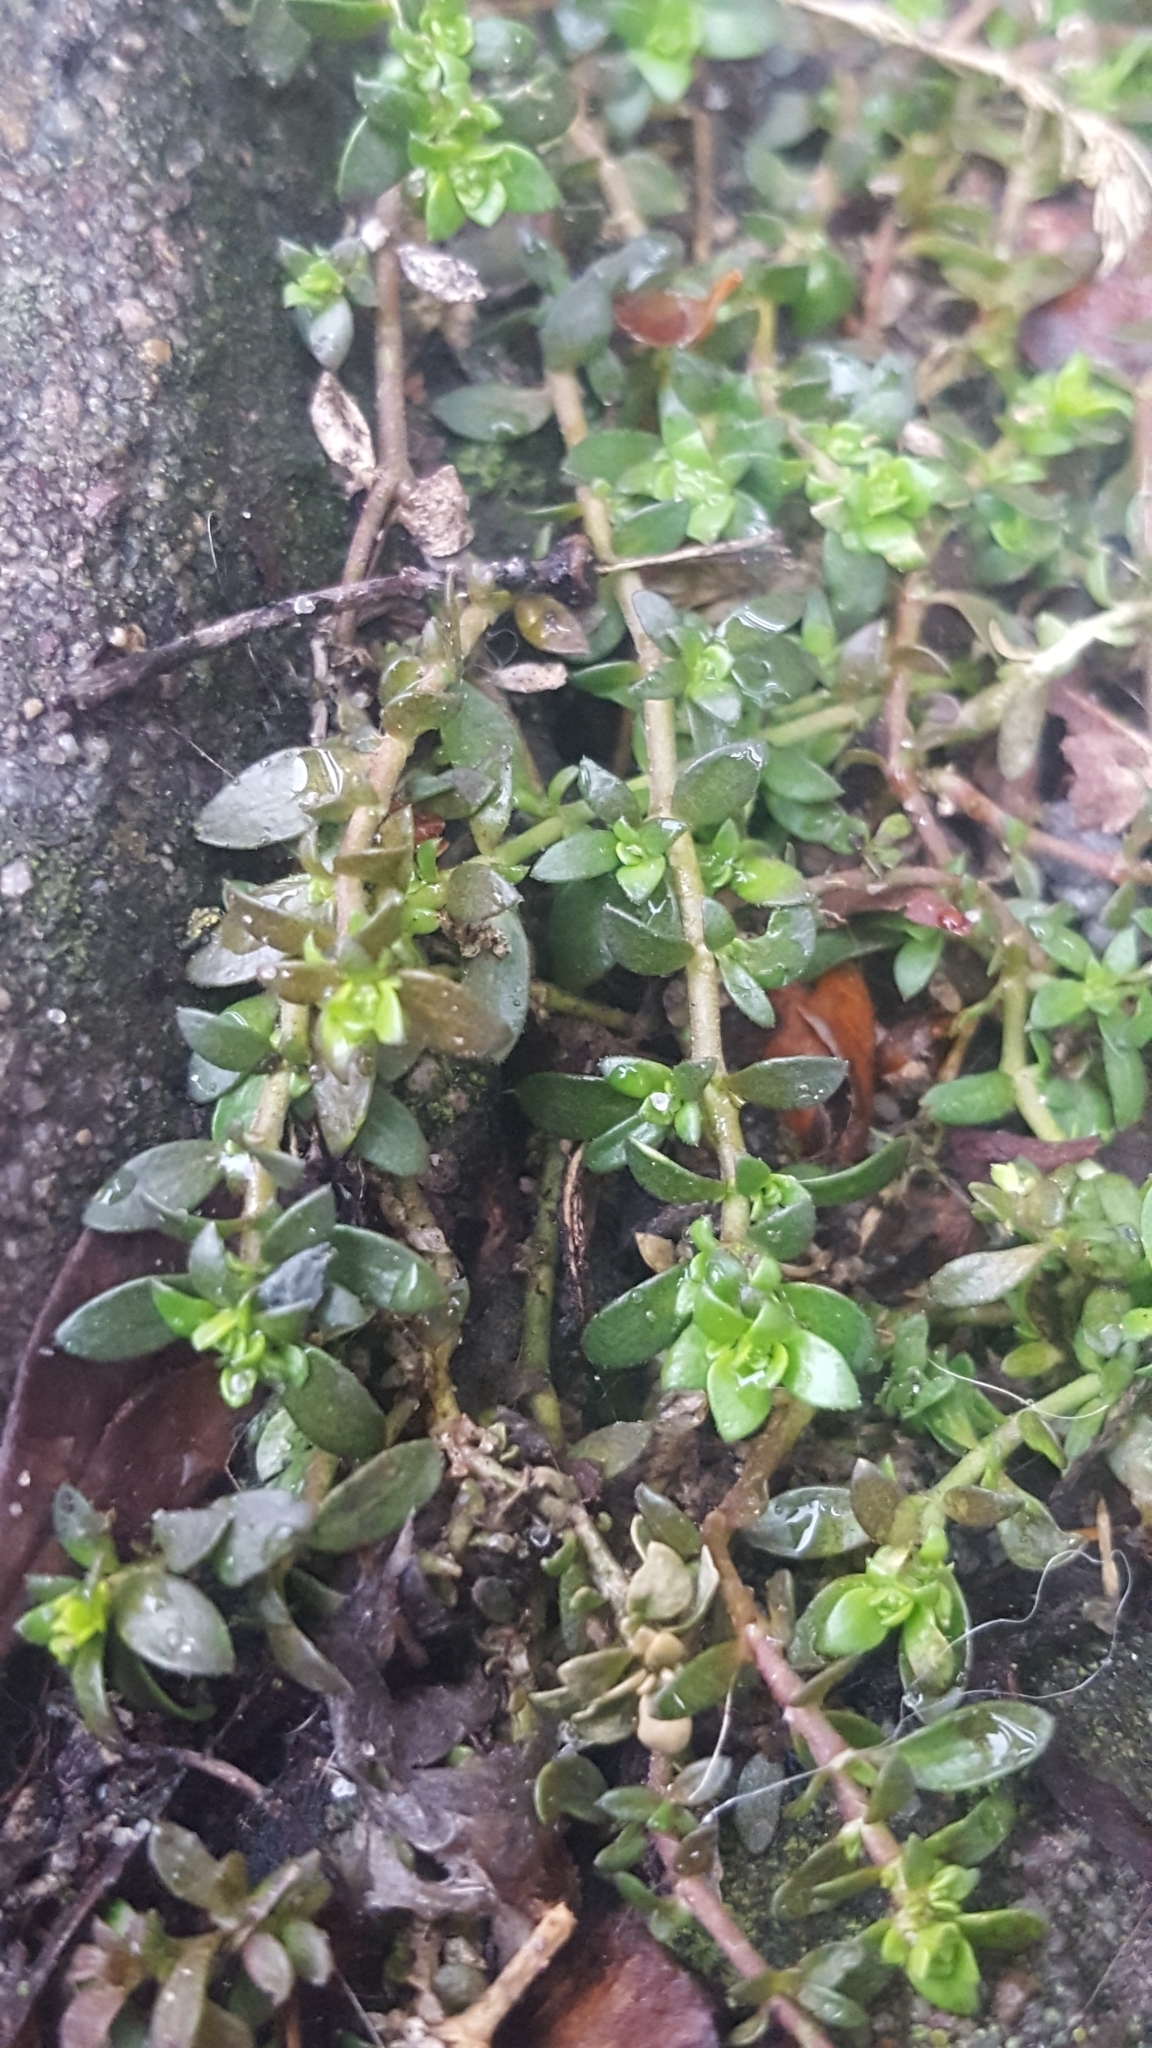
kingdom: Plantae
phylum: Tracheophyta
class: Magnoliopsida
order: Caryophyllales
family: Caryophyllaceae
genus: Herniaria
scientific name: Herniaria glabra
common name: Smooth rupturewort
